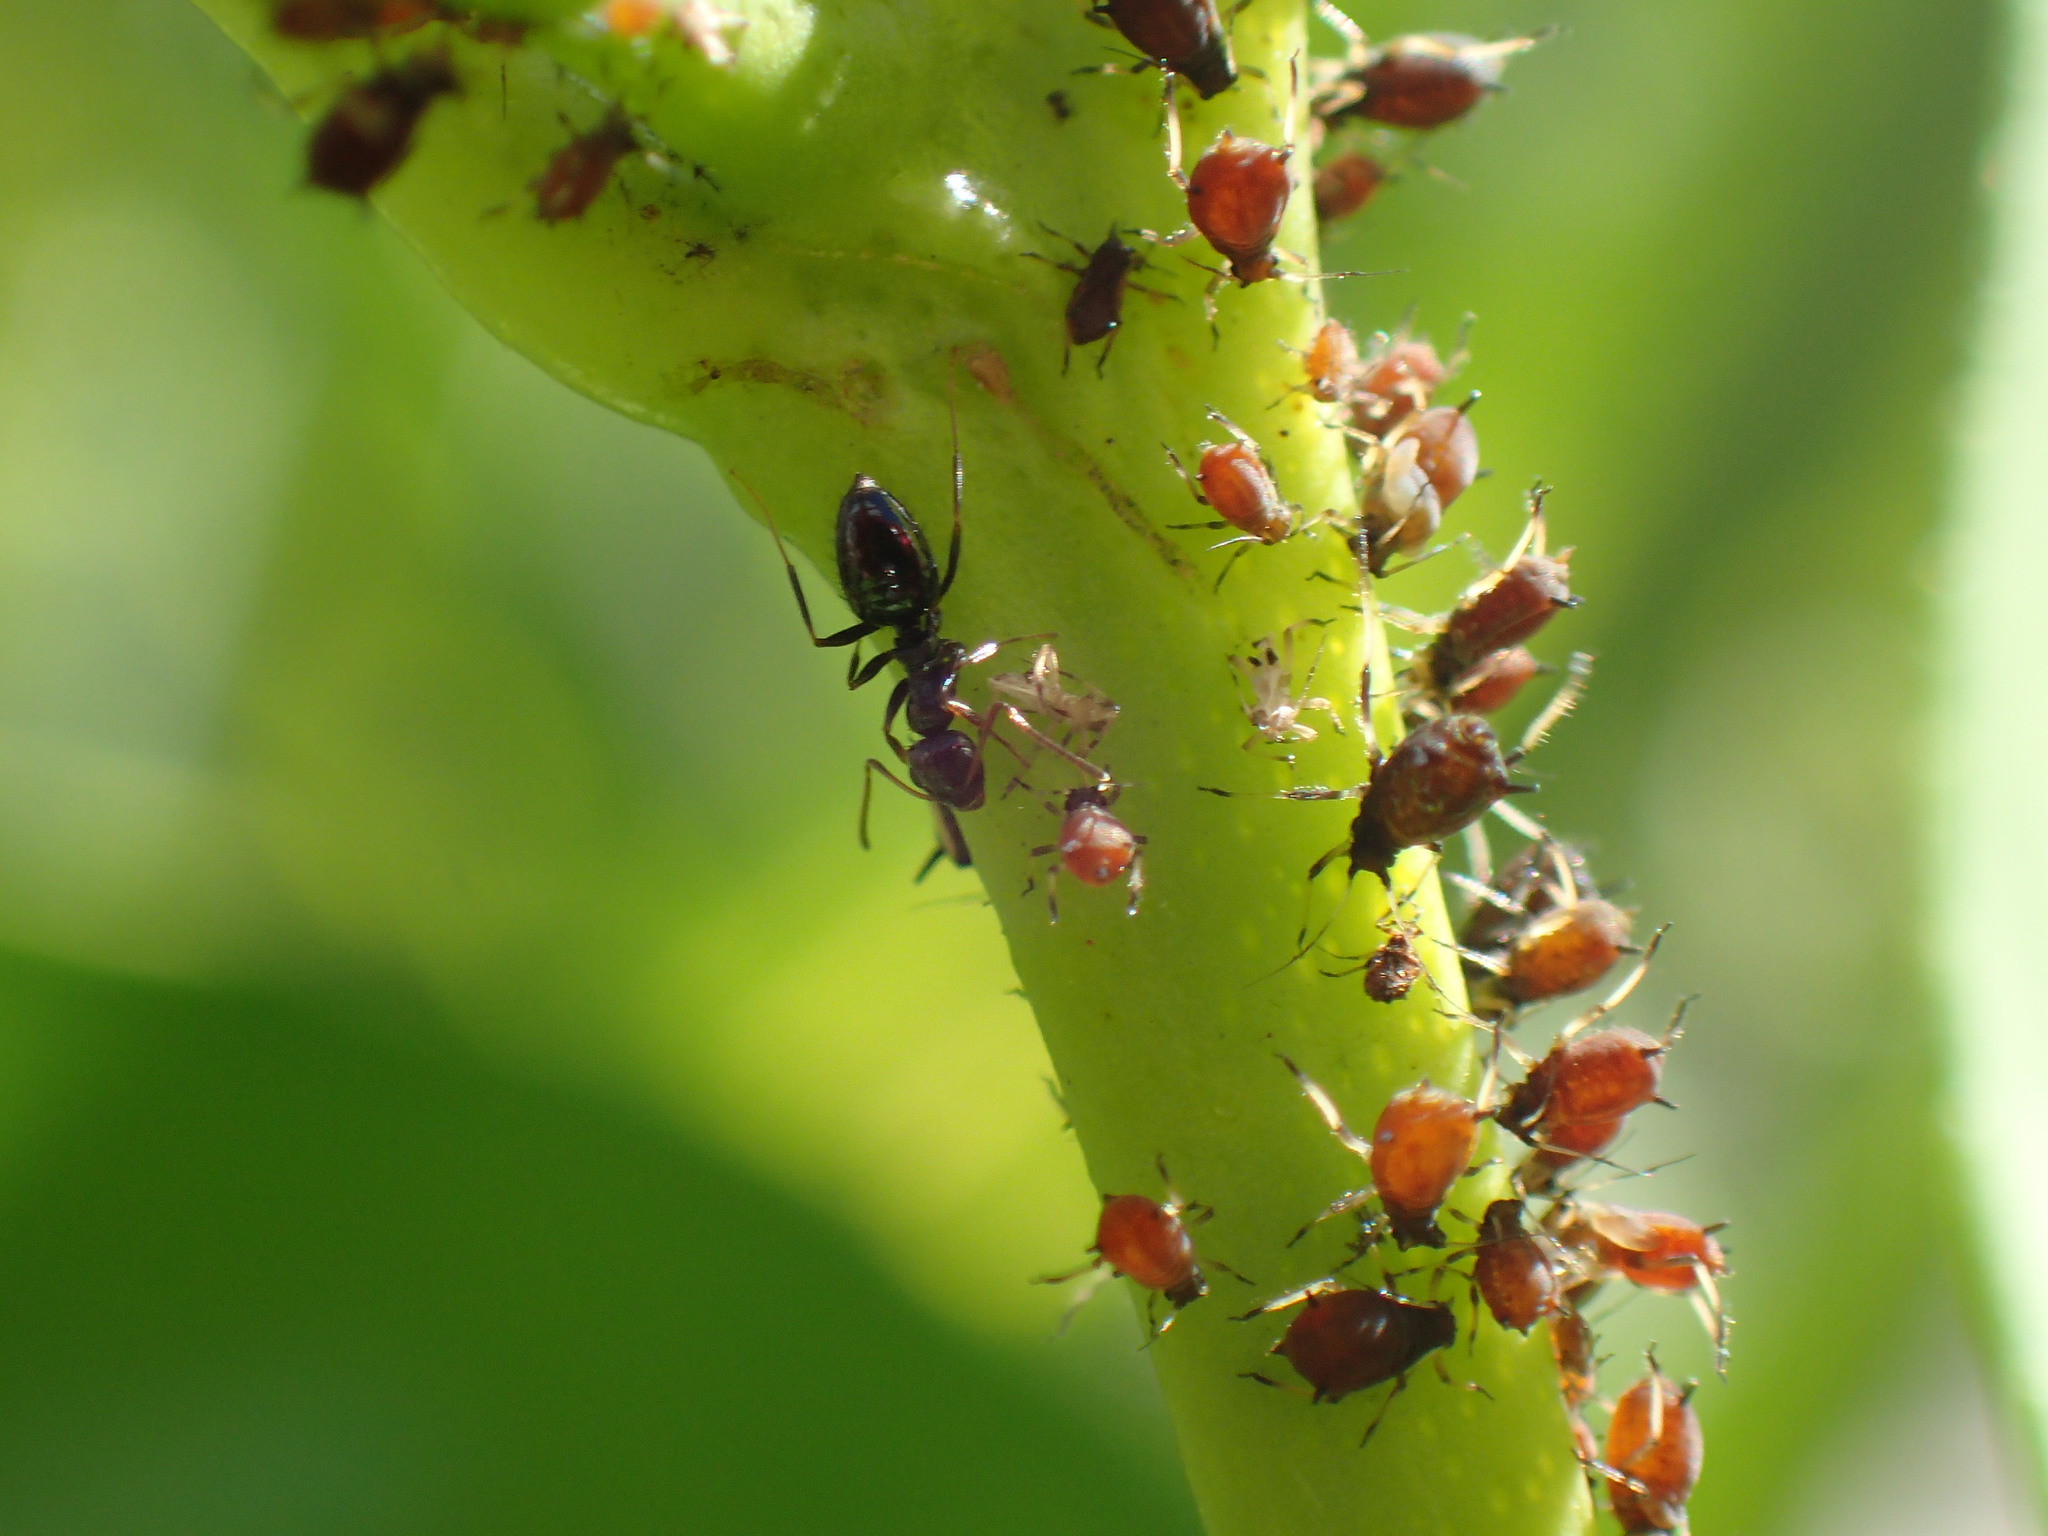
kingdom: Animalia
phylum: Arthropoda
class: Insecta
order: Hymenoptera
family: Formicidae
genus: Lepisiota
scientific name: Lepisiota capensis
